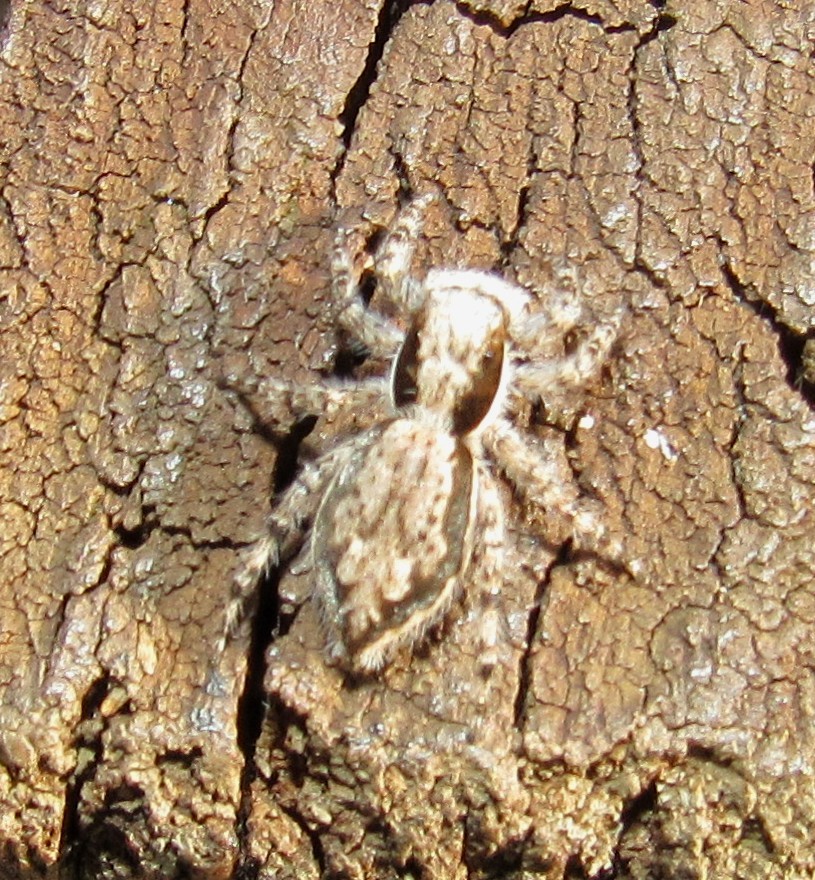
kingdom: Animalia
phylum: Arthropoda
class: Arachnida
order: Araneae
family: Salticidae
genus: Menemerus
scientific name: Menemerus bivittatus
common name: Gray wall jumper
